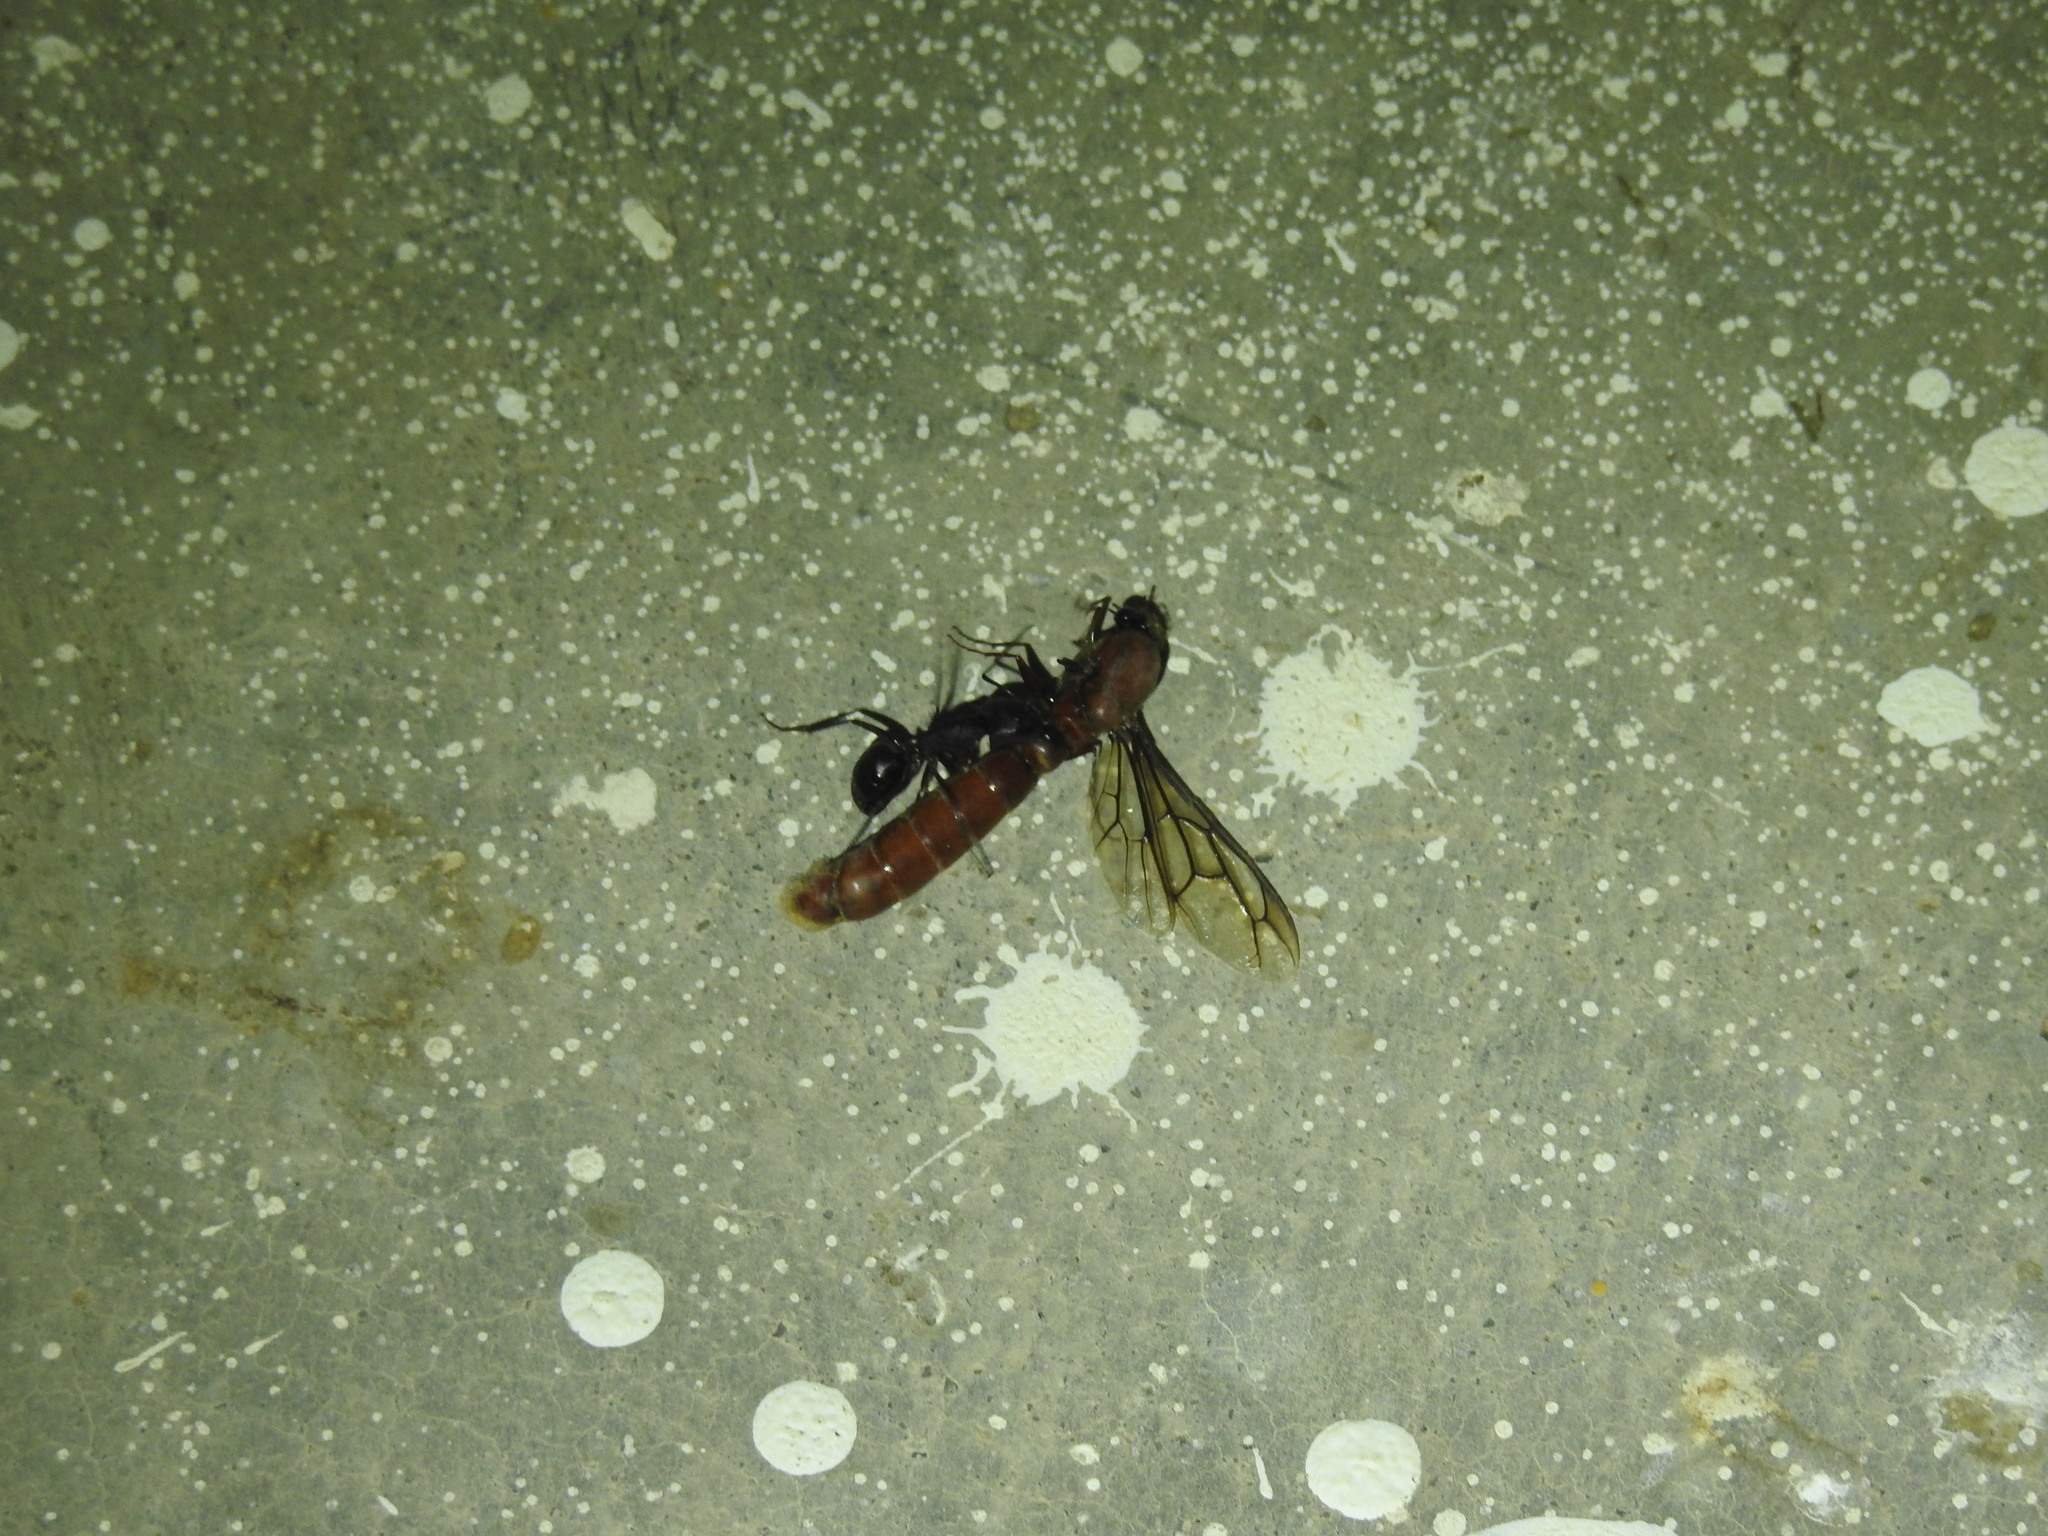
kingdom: Animalia
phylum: Arthropoda
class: Insecta
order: Hymenoptera
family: Formicidae
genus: Camponotus
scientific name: Camponotus compressus
